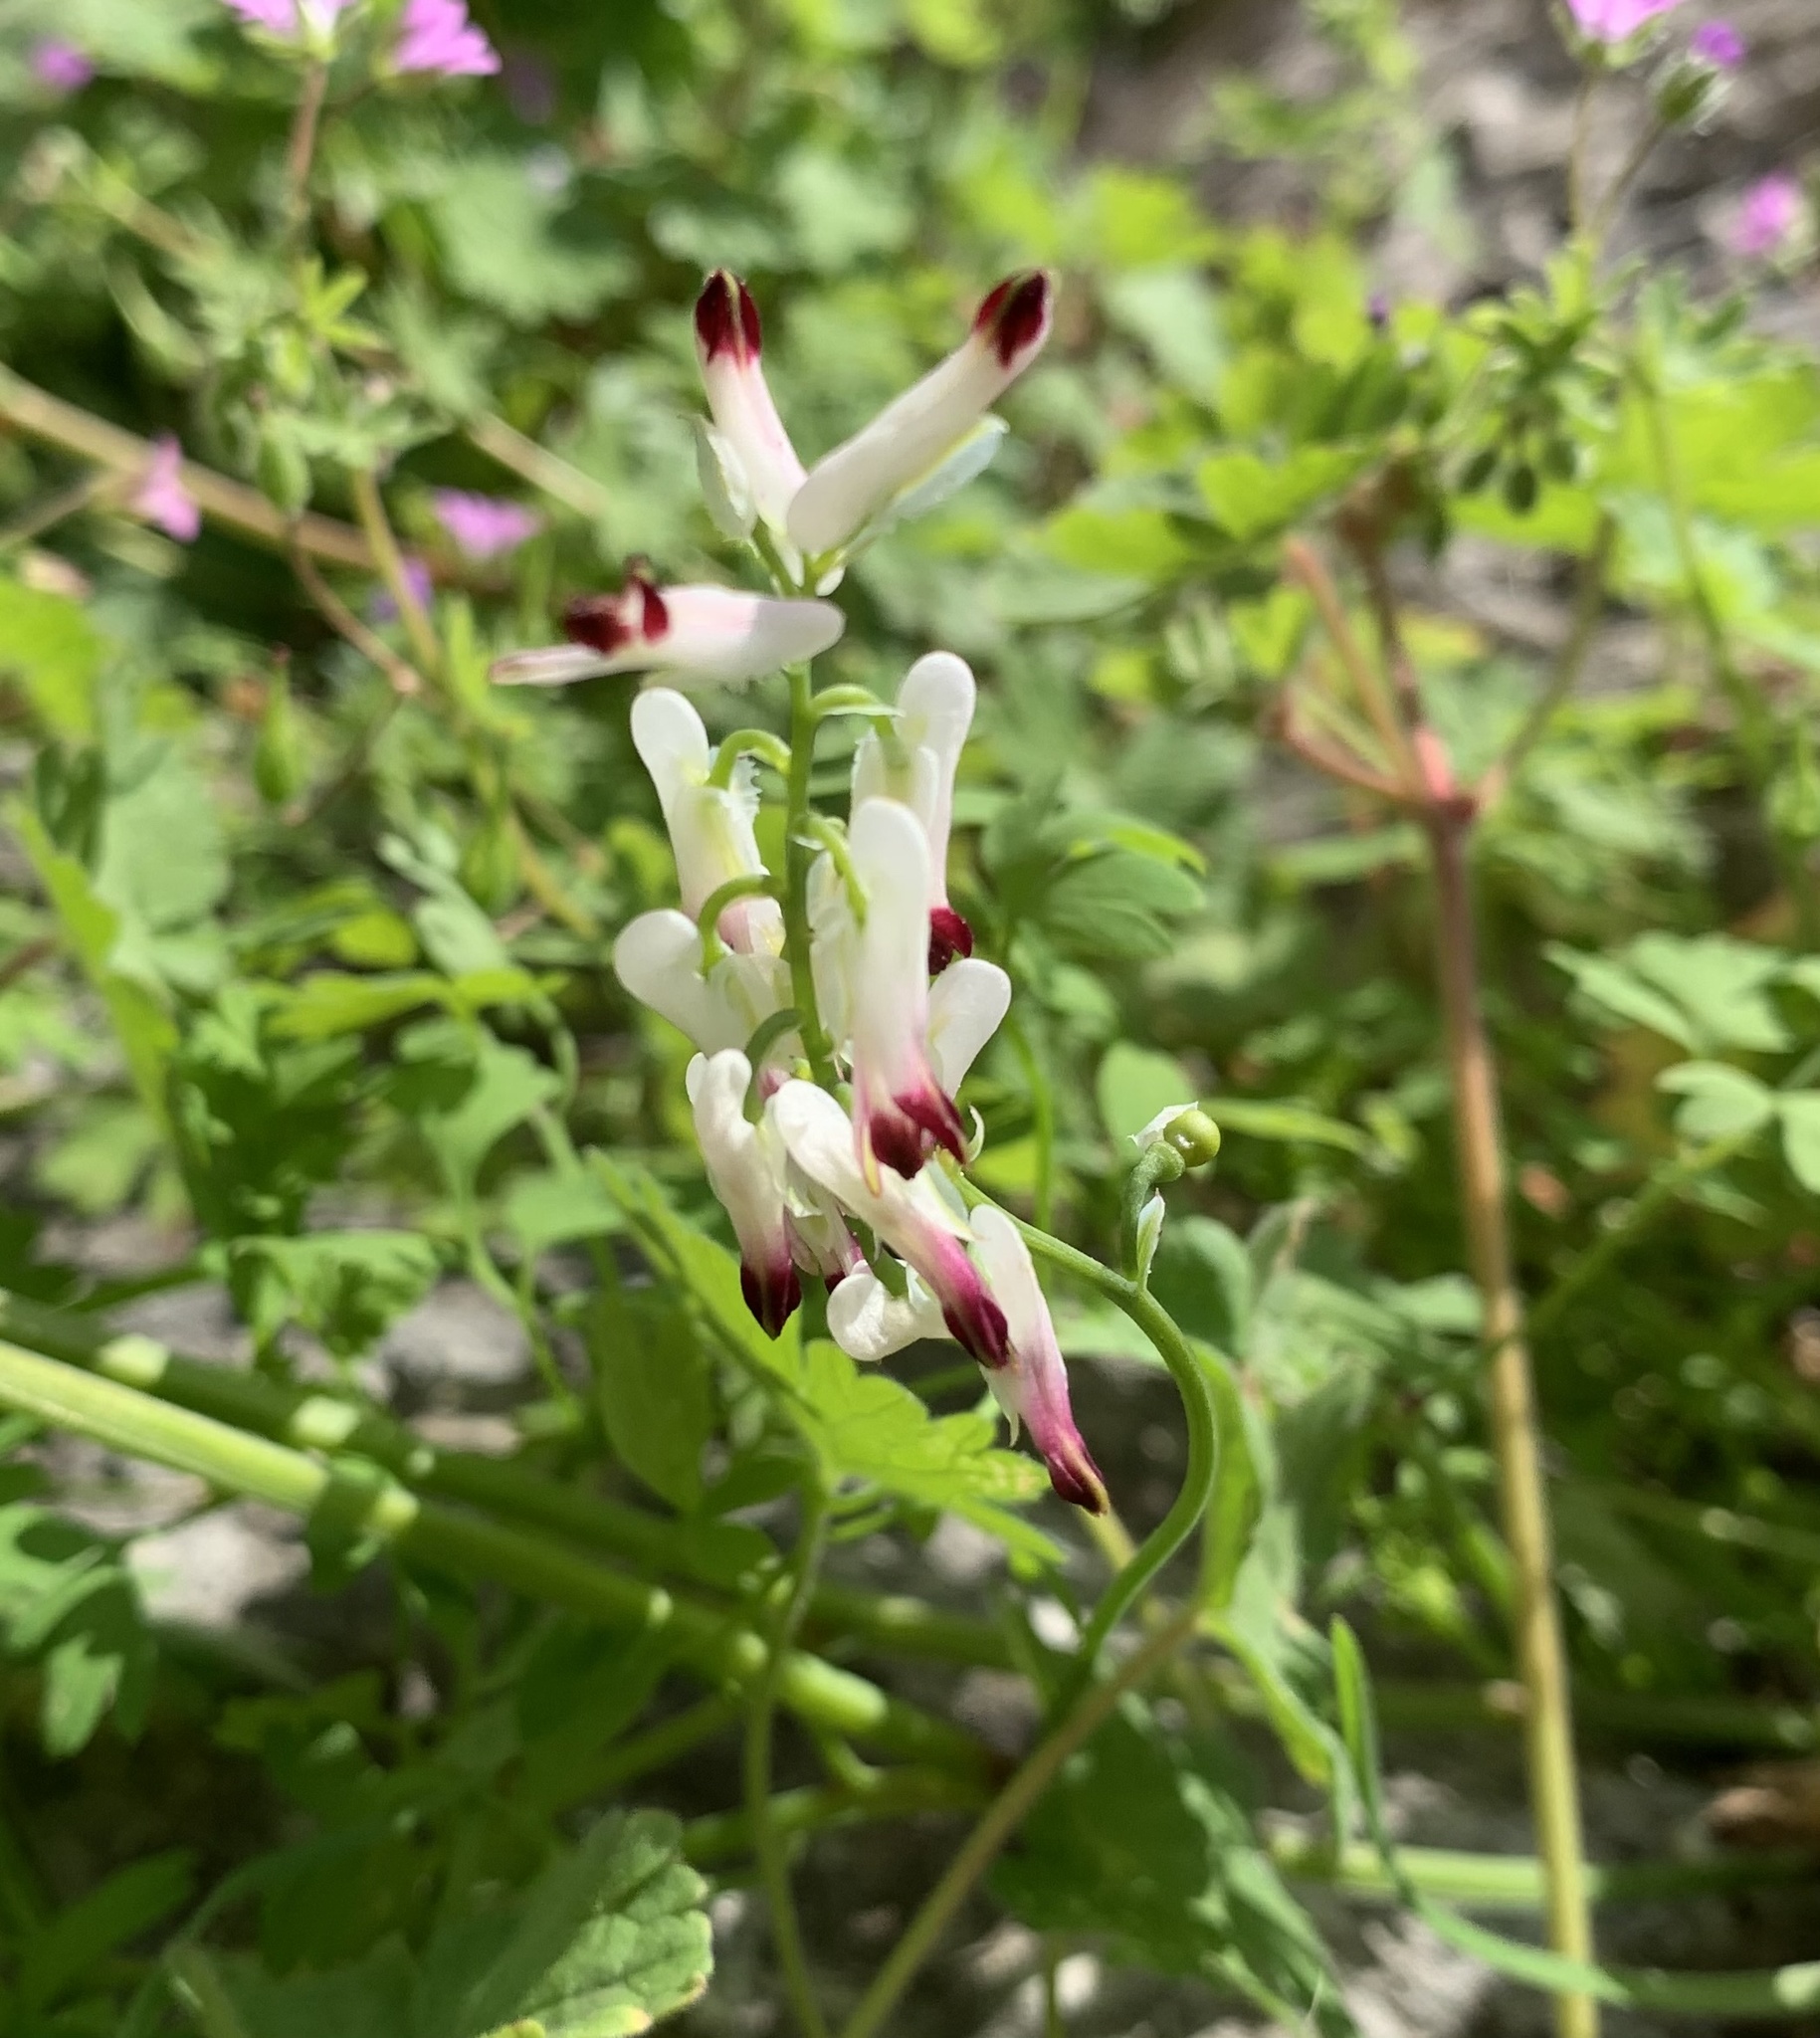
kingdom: Plantae
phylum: Tracheophyta
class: Magnoliopsida
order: Ranunculales
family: Papaveraceae
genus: Fumaria
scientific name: Fumaria capreolata
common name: White ramping-fumitory
